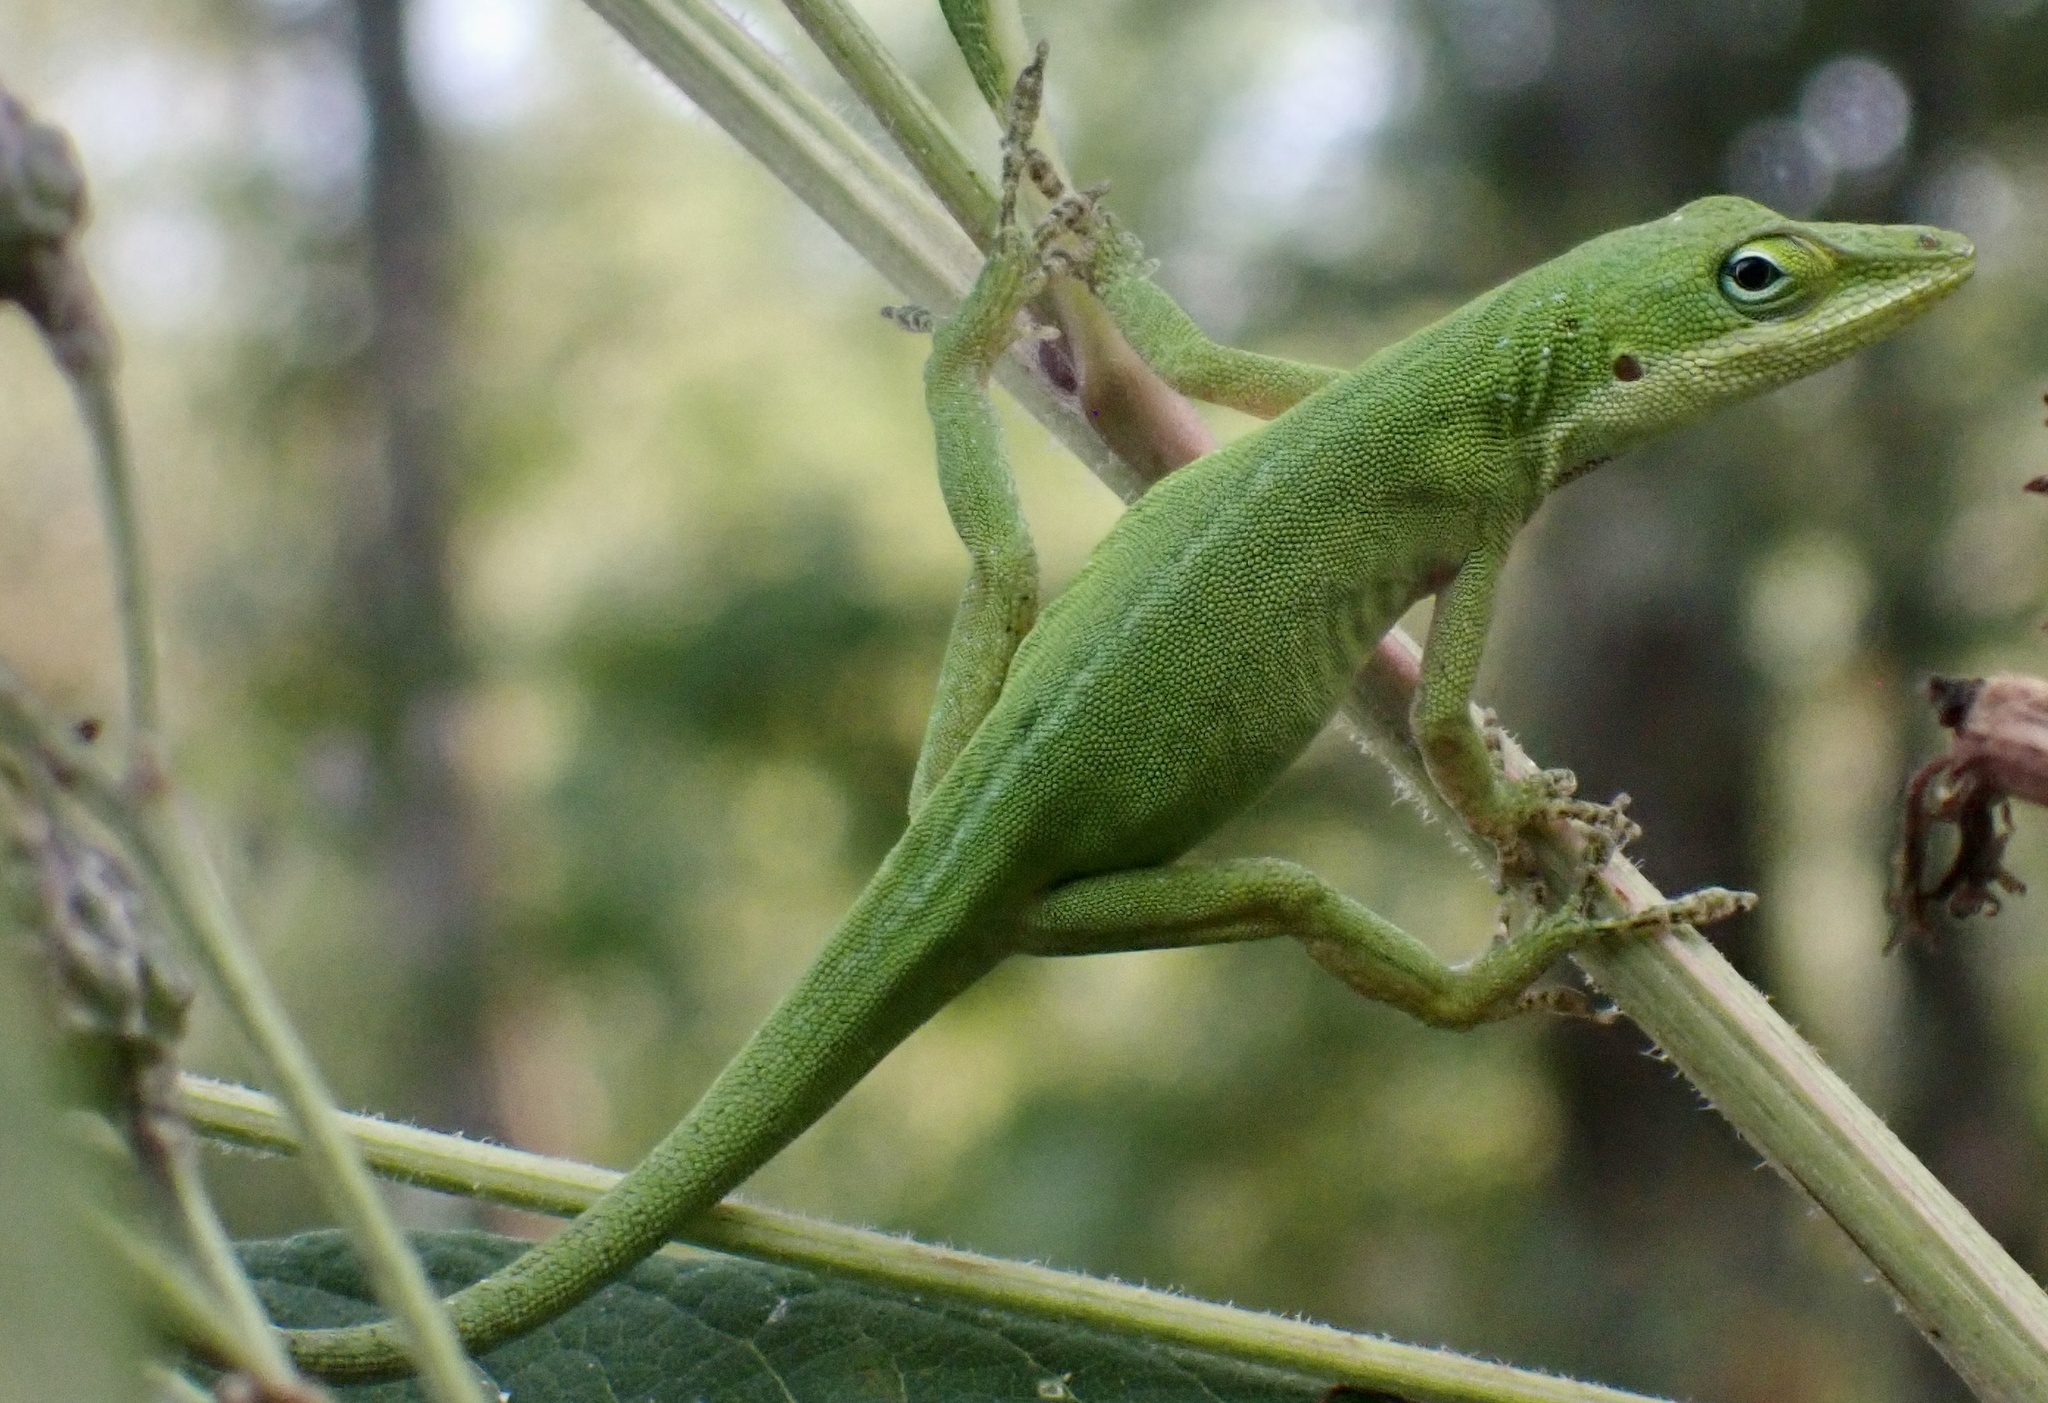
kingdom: Animalia
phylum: Chordata
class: Squamata
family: Dactyloidae
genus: Anolis
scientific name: Anolis carolinensis
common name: Green anole
